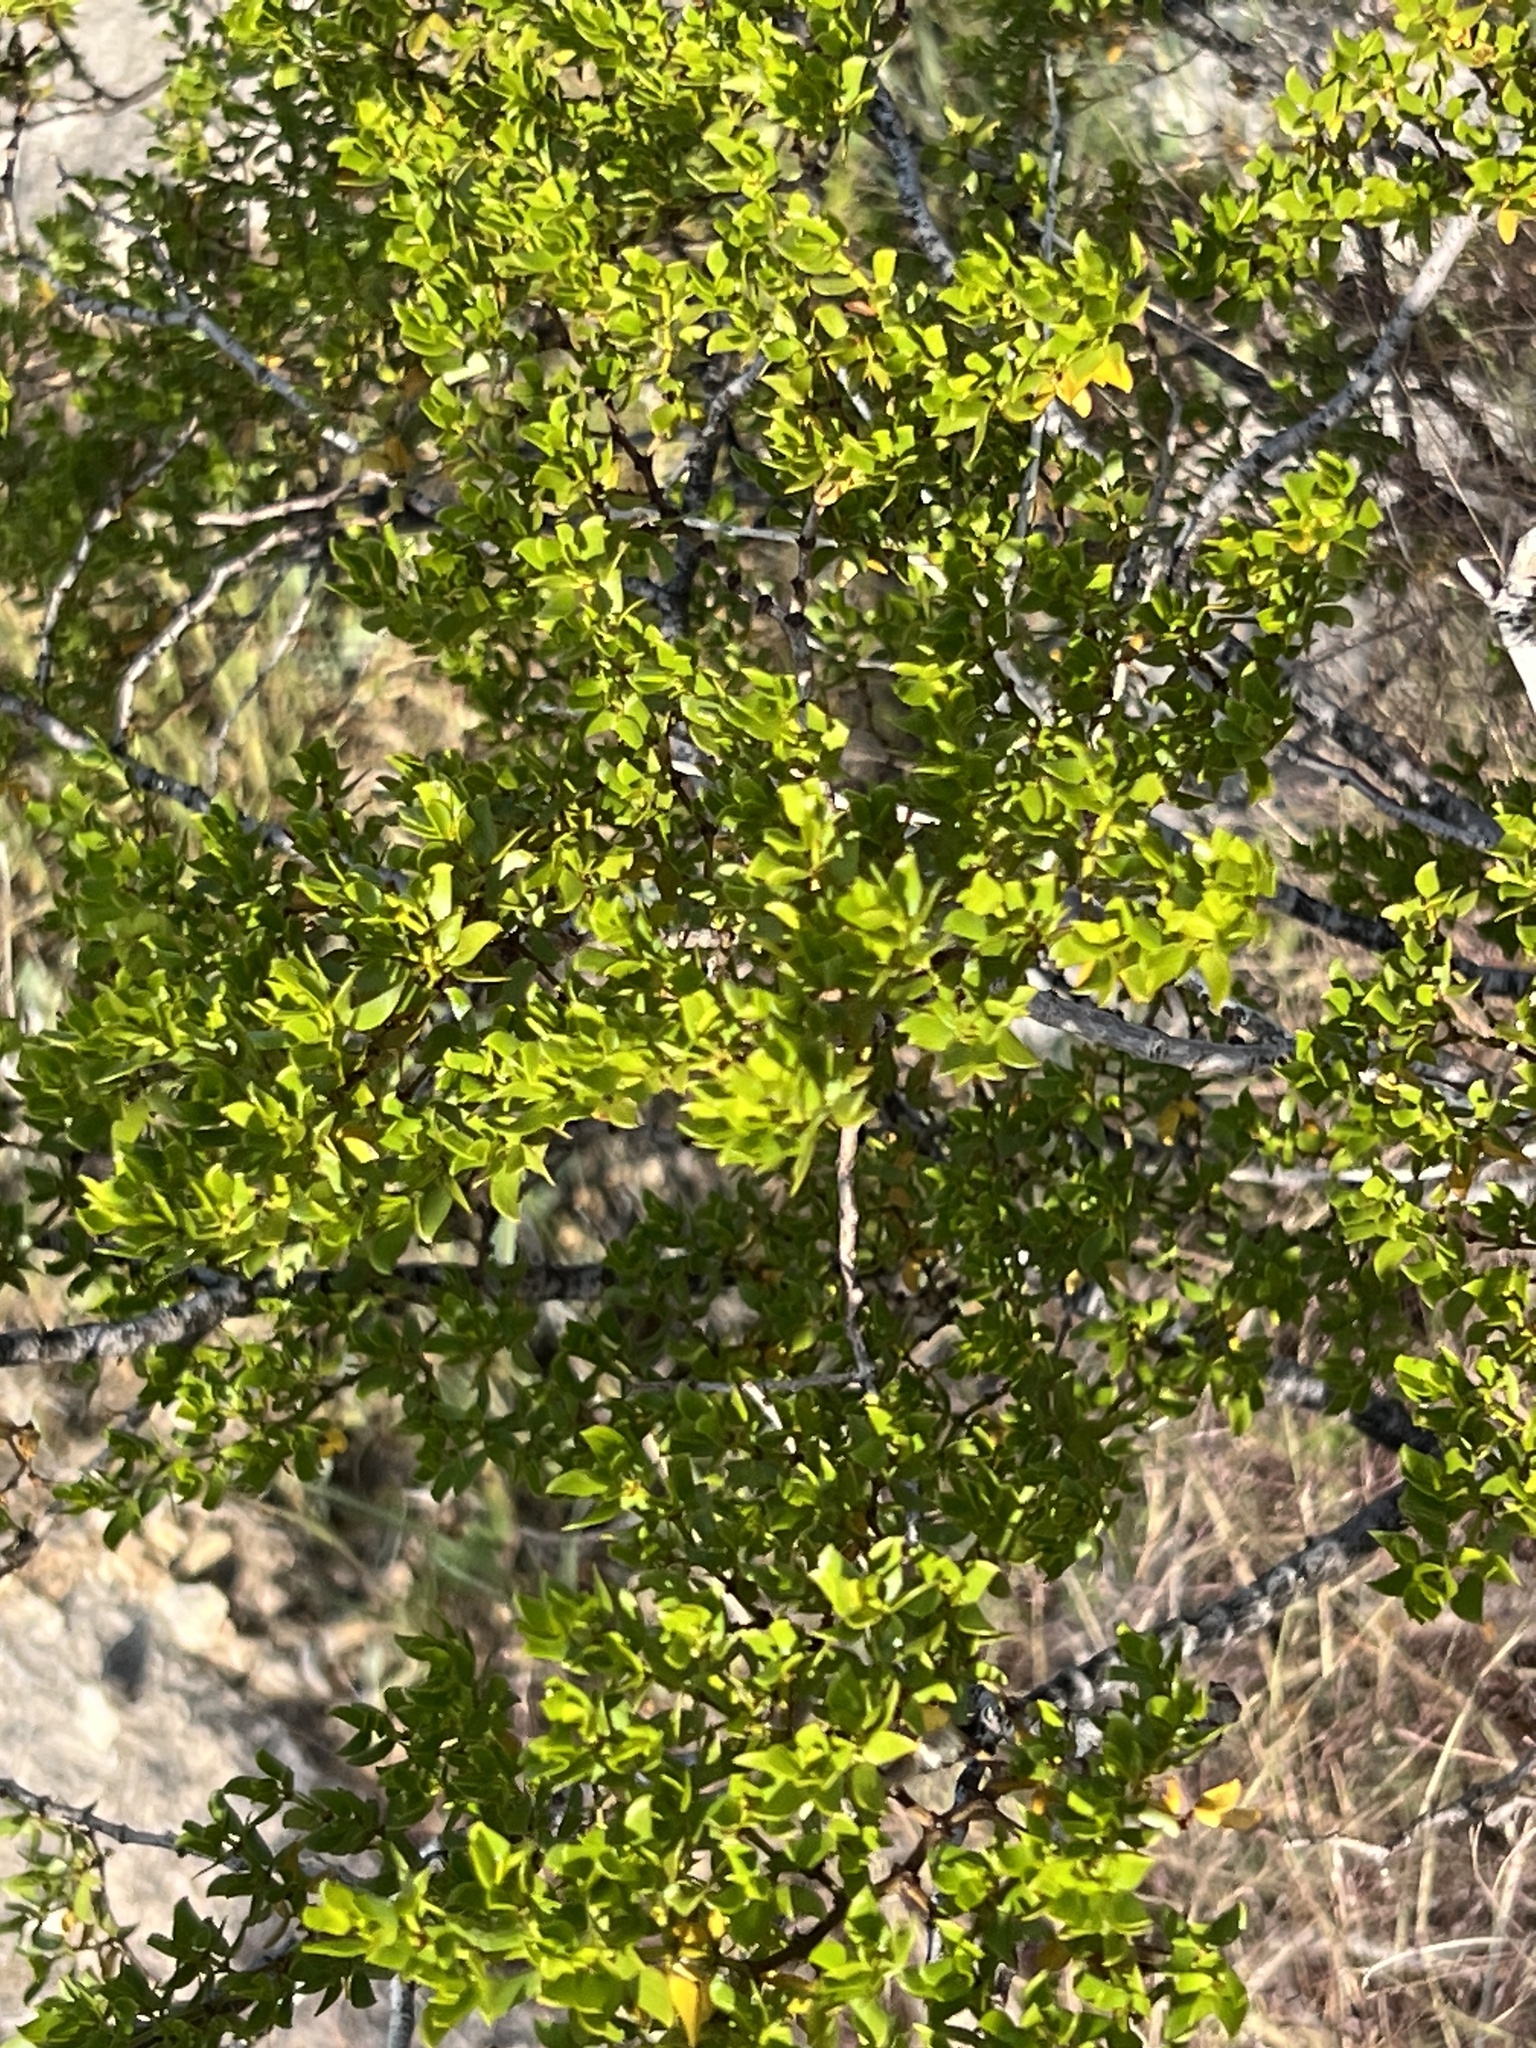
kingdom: Plantae
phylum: Tracheophyta
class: Magnoliopsida
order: Zygophyllales
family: Zygophyllaceae
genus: Larrea
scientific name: Larrea tridentata
